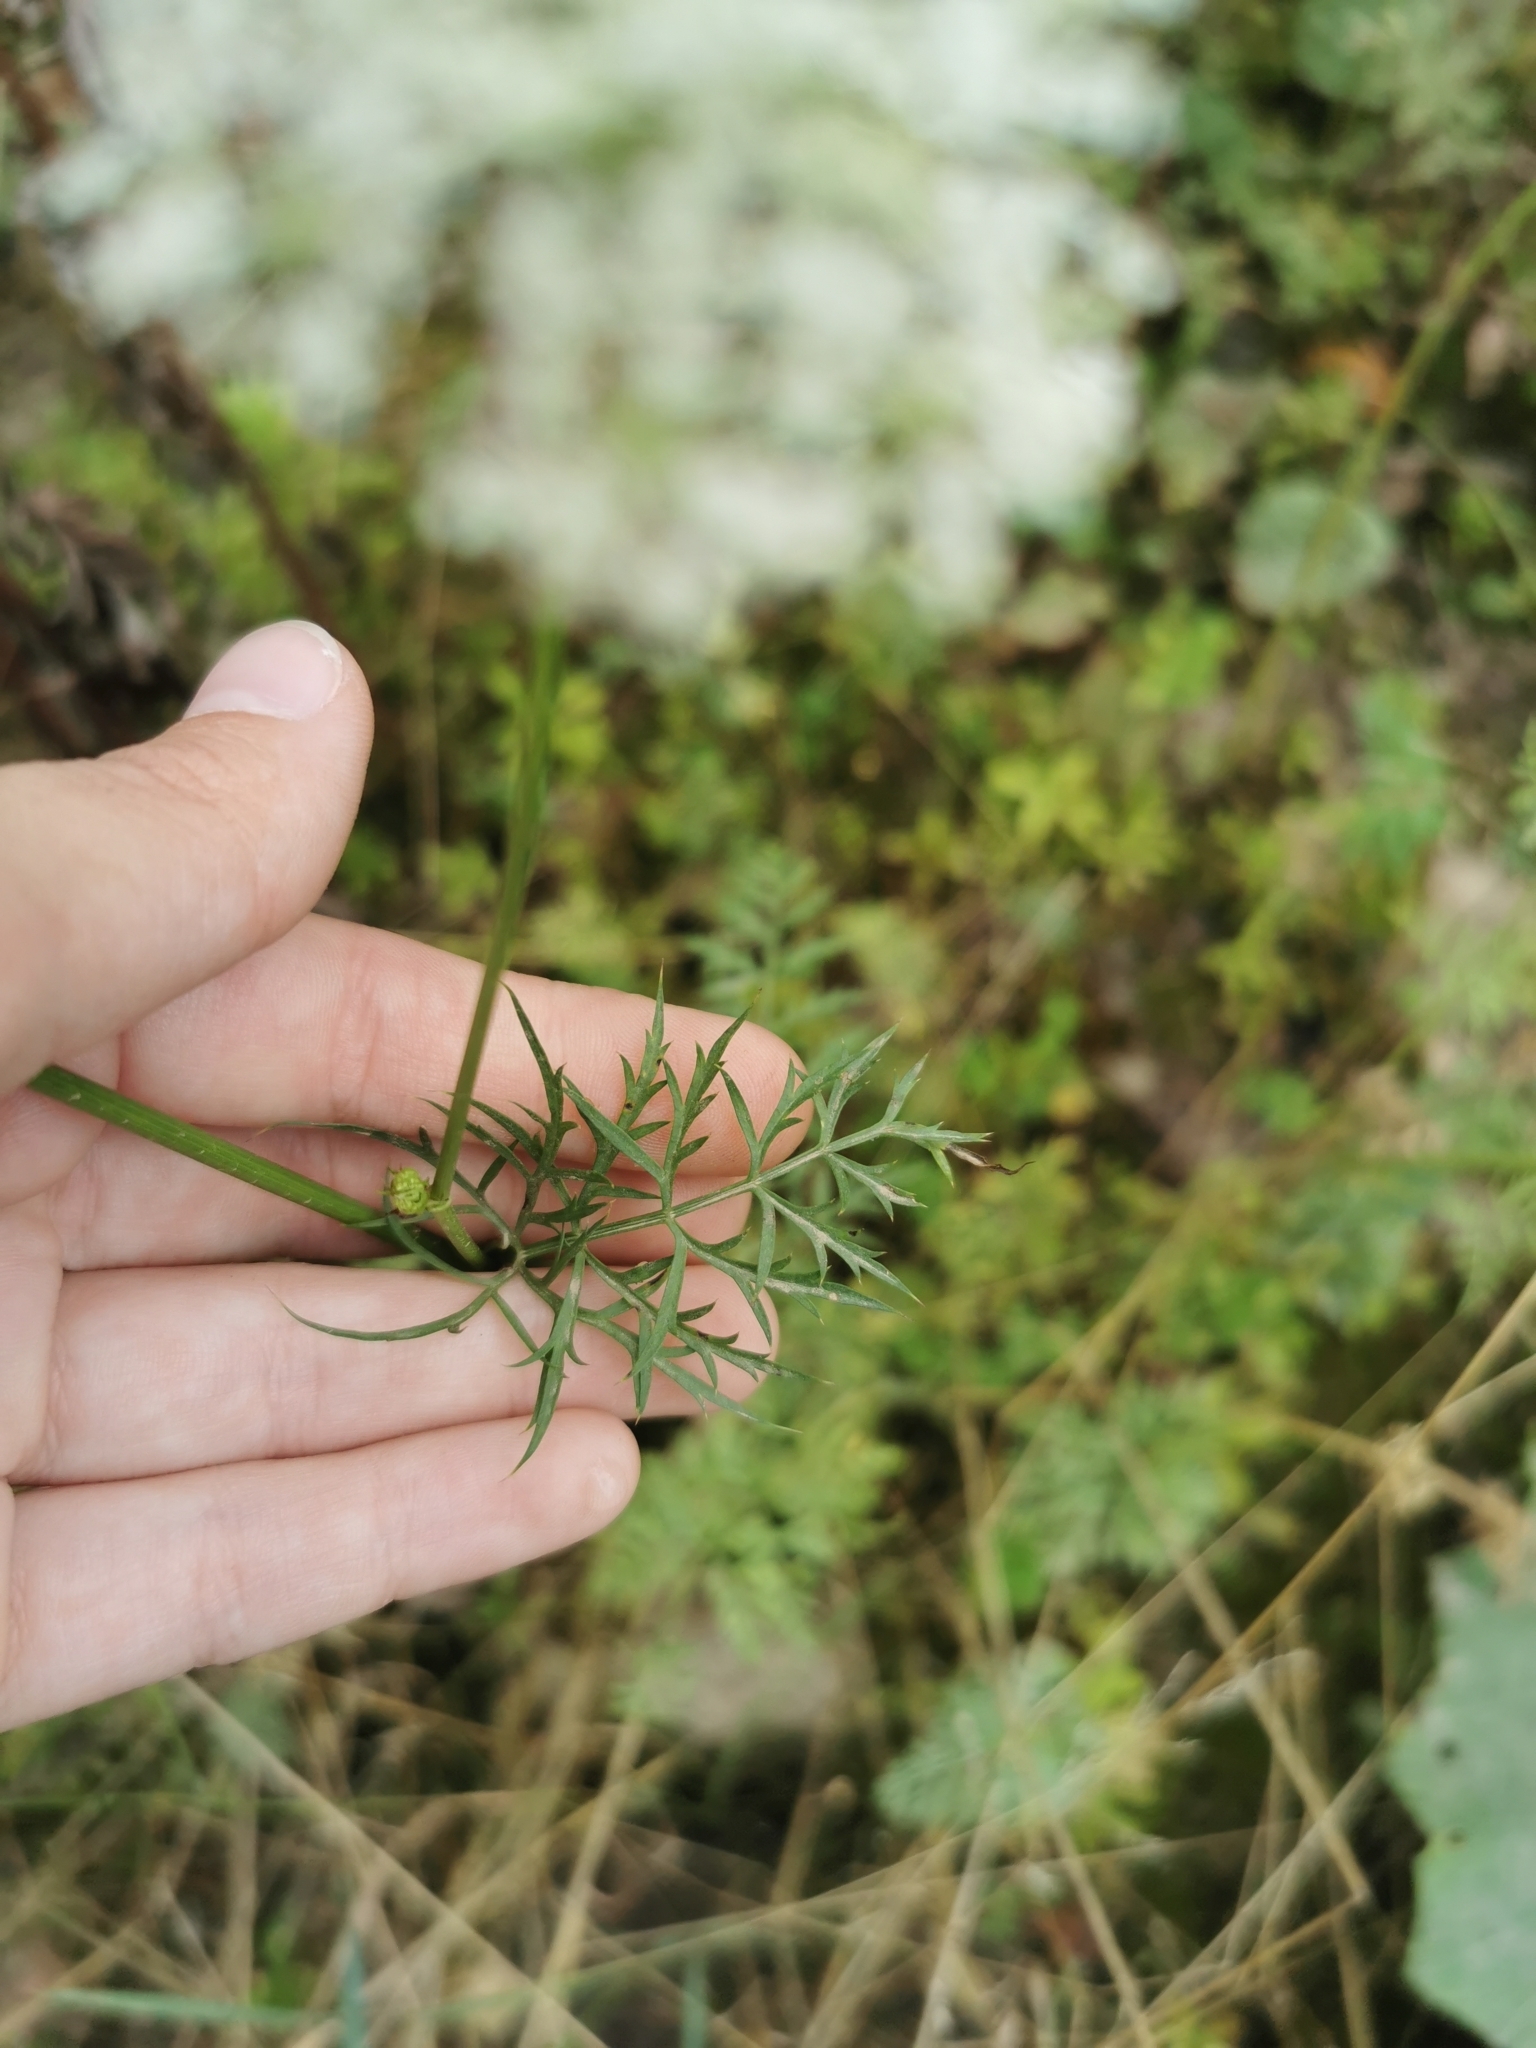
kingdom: Plantae
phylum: Tracheophyta
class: Magnoliopsida
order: Apiales
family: Apiaceae
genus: Daucus
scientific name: Daucus carota
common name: Wild carrot
